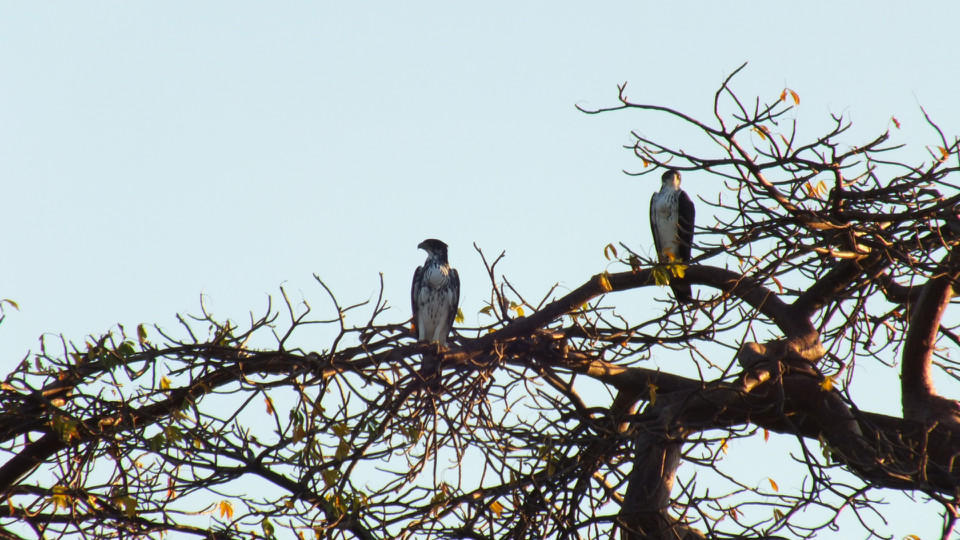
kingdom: Animalia
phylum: Chordata
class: Aves
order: Accipitriformes
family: Accipitridae
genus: Aquila
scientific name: Aquila spilogaster
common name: African hawk-eagle
